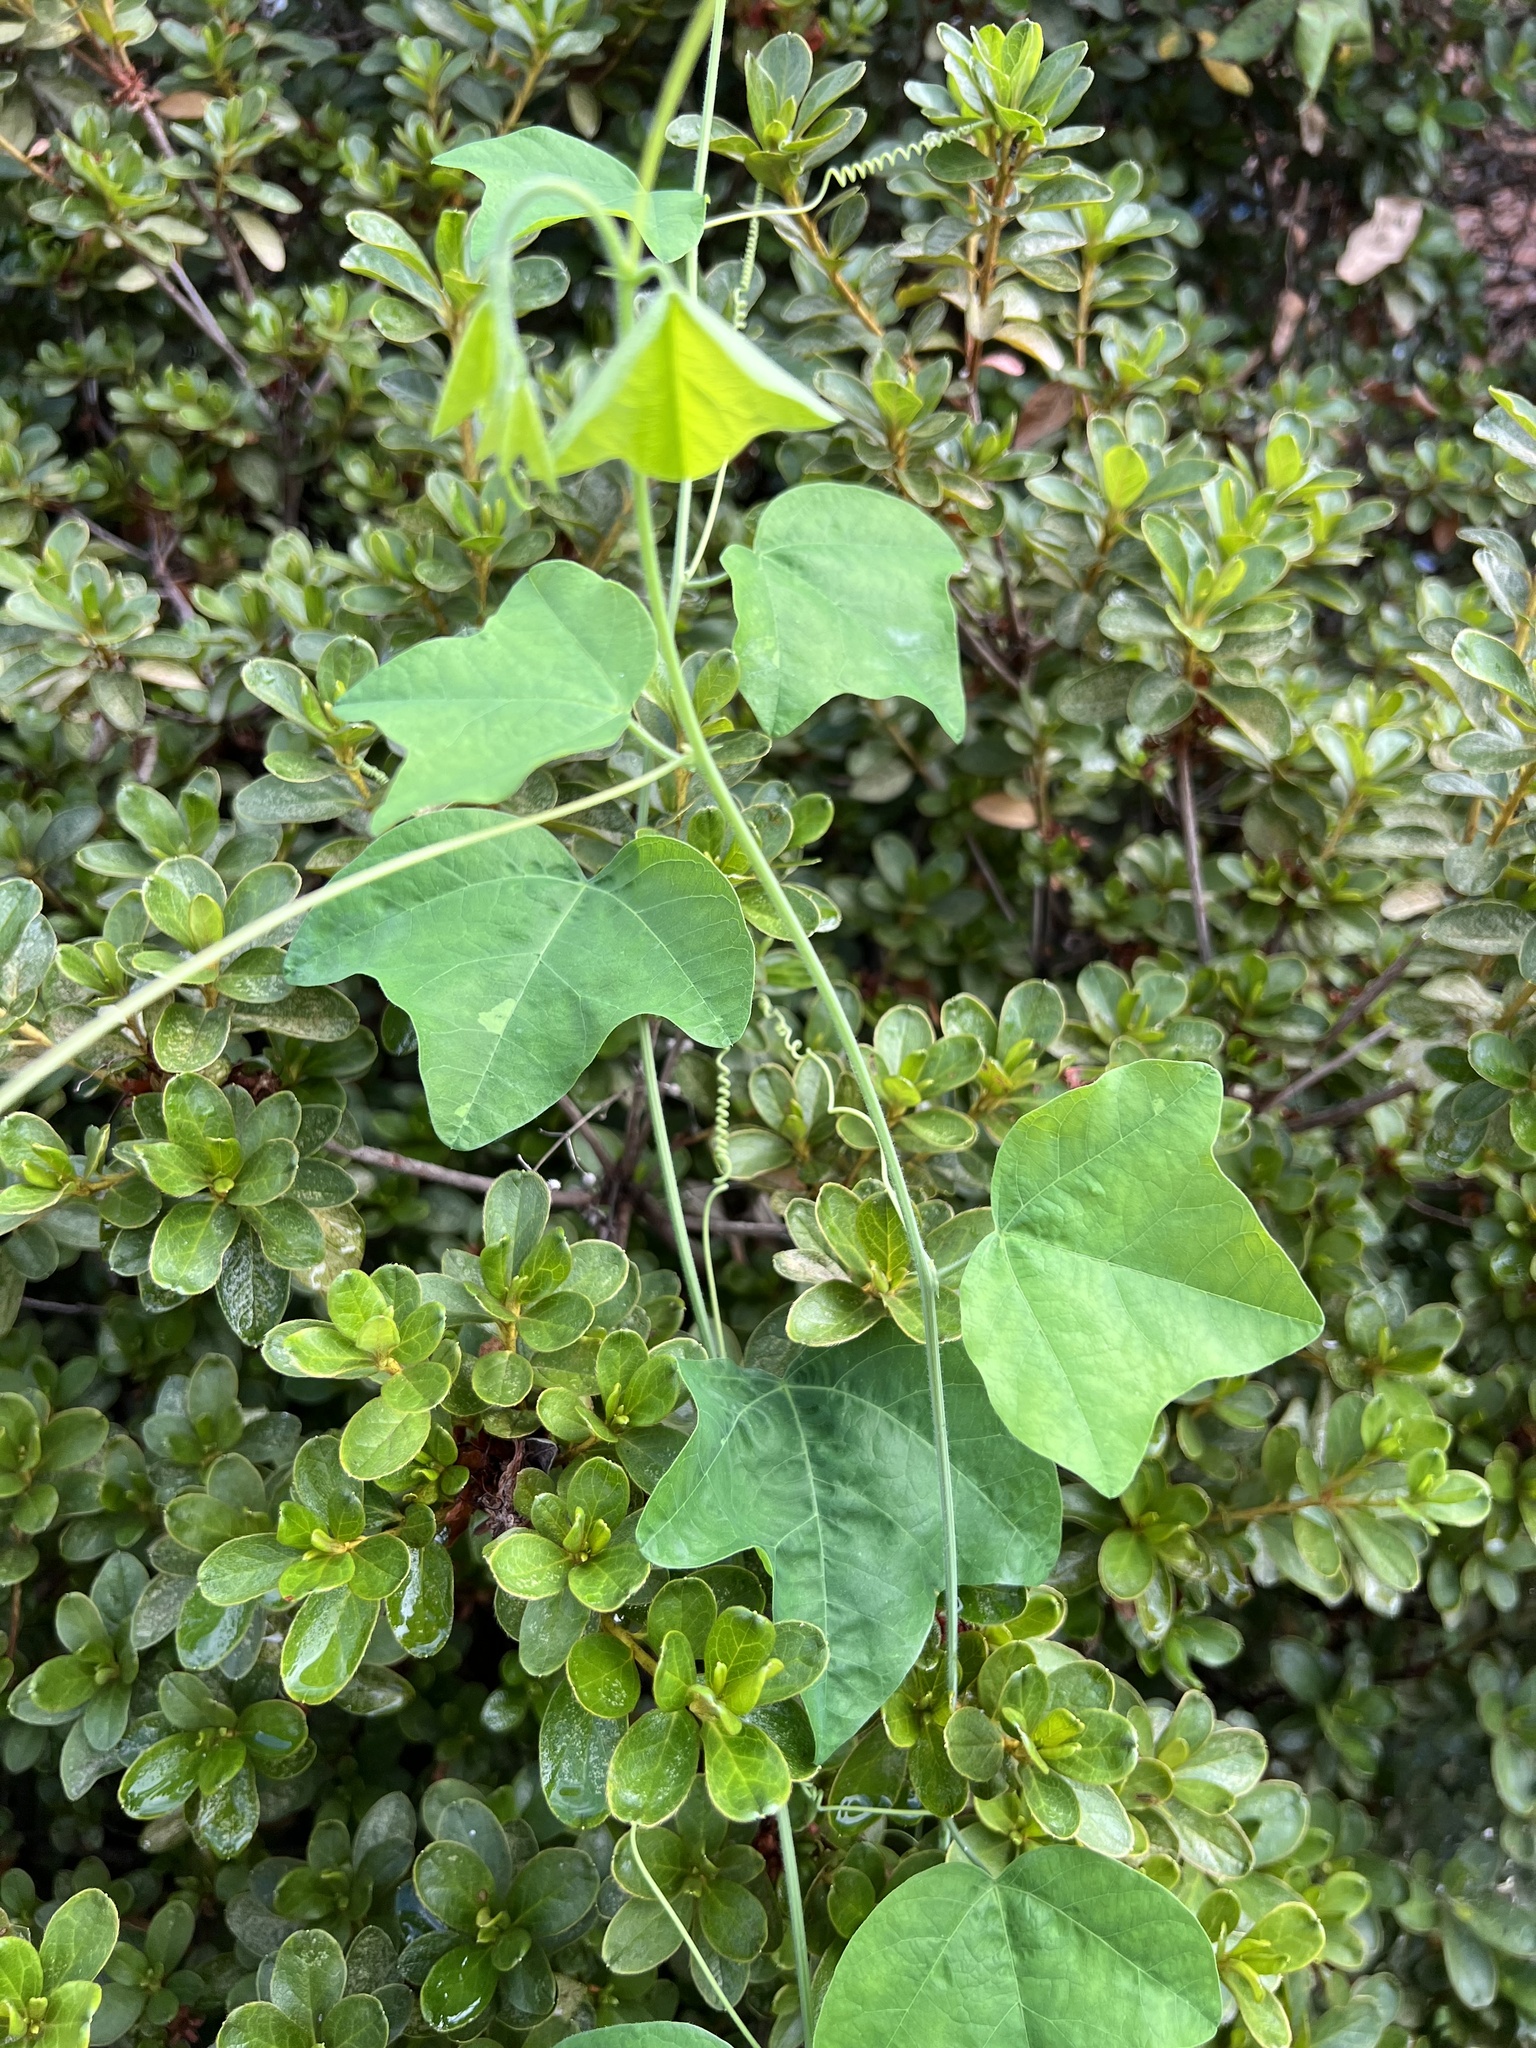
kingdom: Plantae
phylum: Tracheophyta
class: Magnoliopsida
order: Malpighiales
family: Passifloraceae
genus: Passiflora
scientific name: Passiflora lutea
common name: Yellow passionflower
